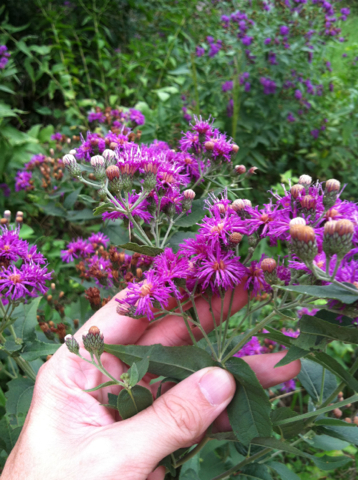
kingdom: Plantae
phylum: Tracheophyta
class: Magnoliopsida
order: Asterales
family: Asteraceae
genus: Vernonia
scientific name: Vernonia baldwinii
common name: Western ironweed
